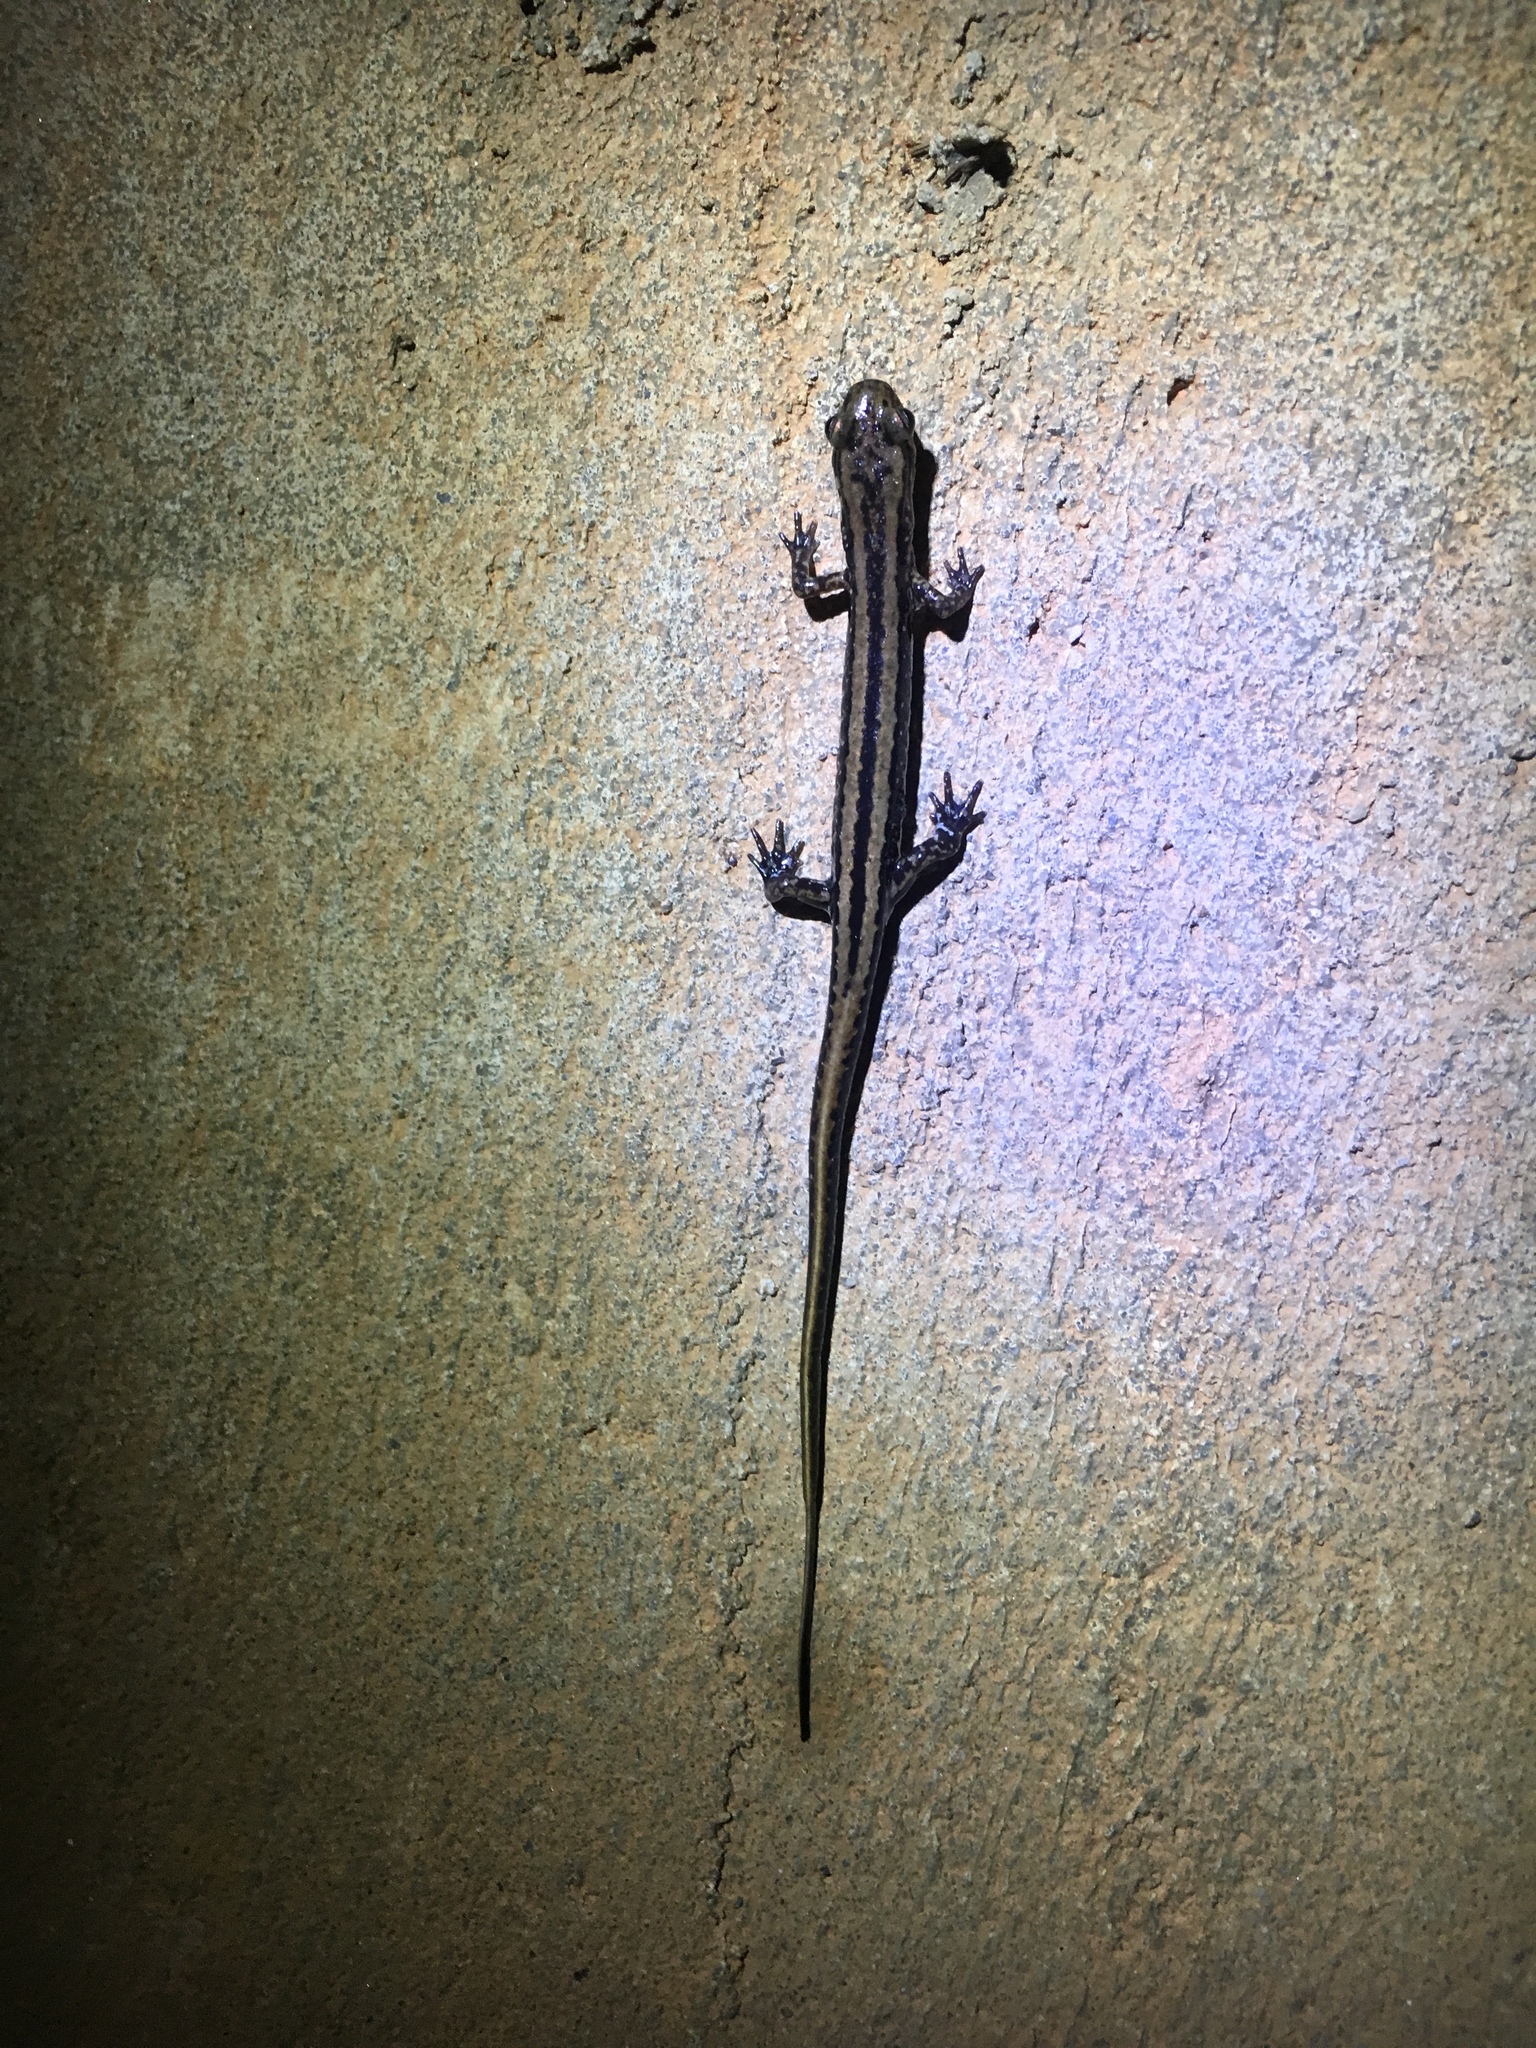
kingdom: Animalia
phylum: Chordata
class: Amphibia
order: Caudata
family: Plethodontidae
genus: Eurycea
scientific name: Eurycea guttolineata
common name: Three-lined salamander
